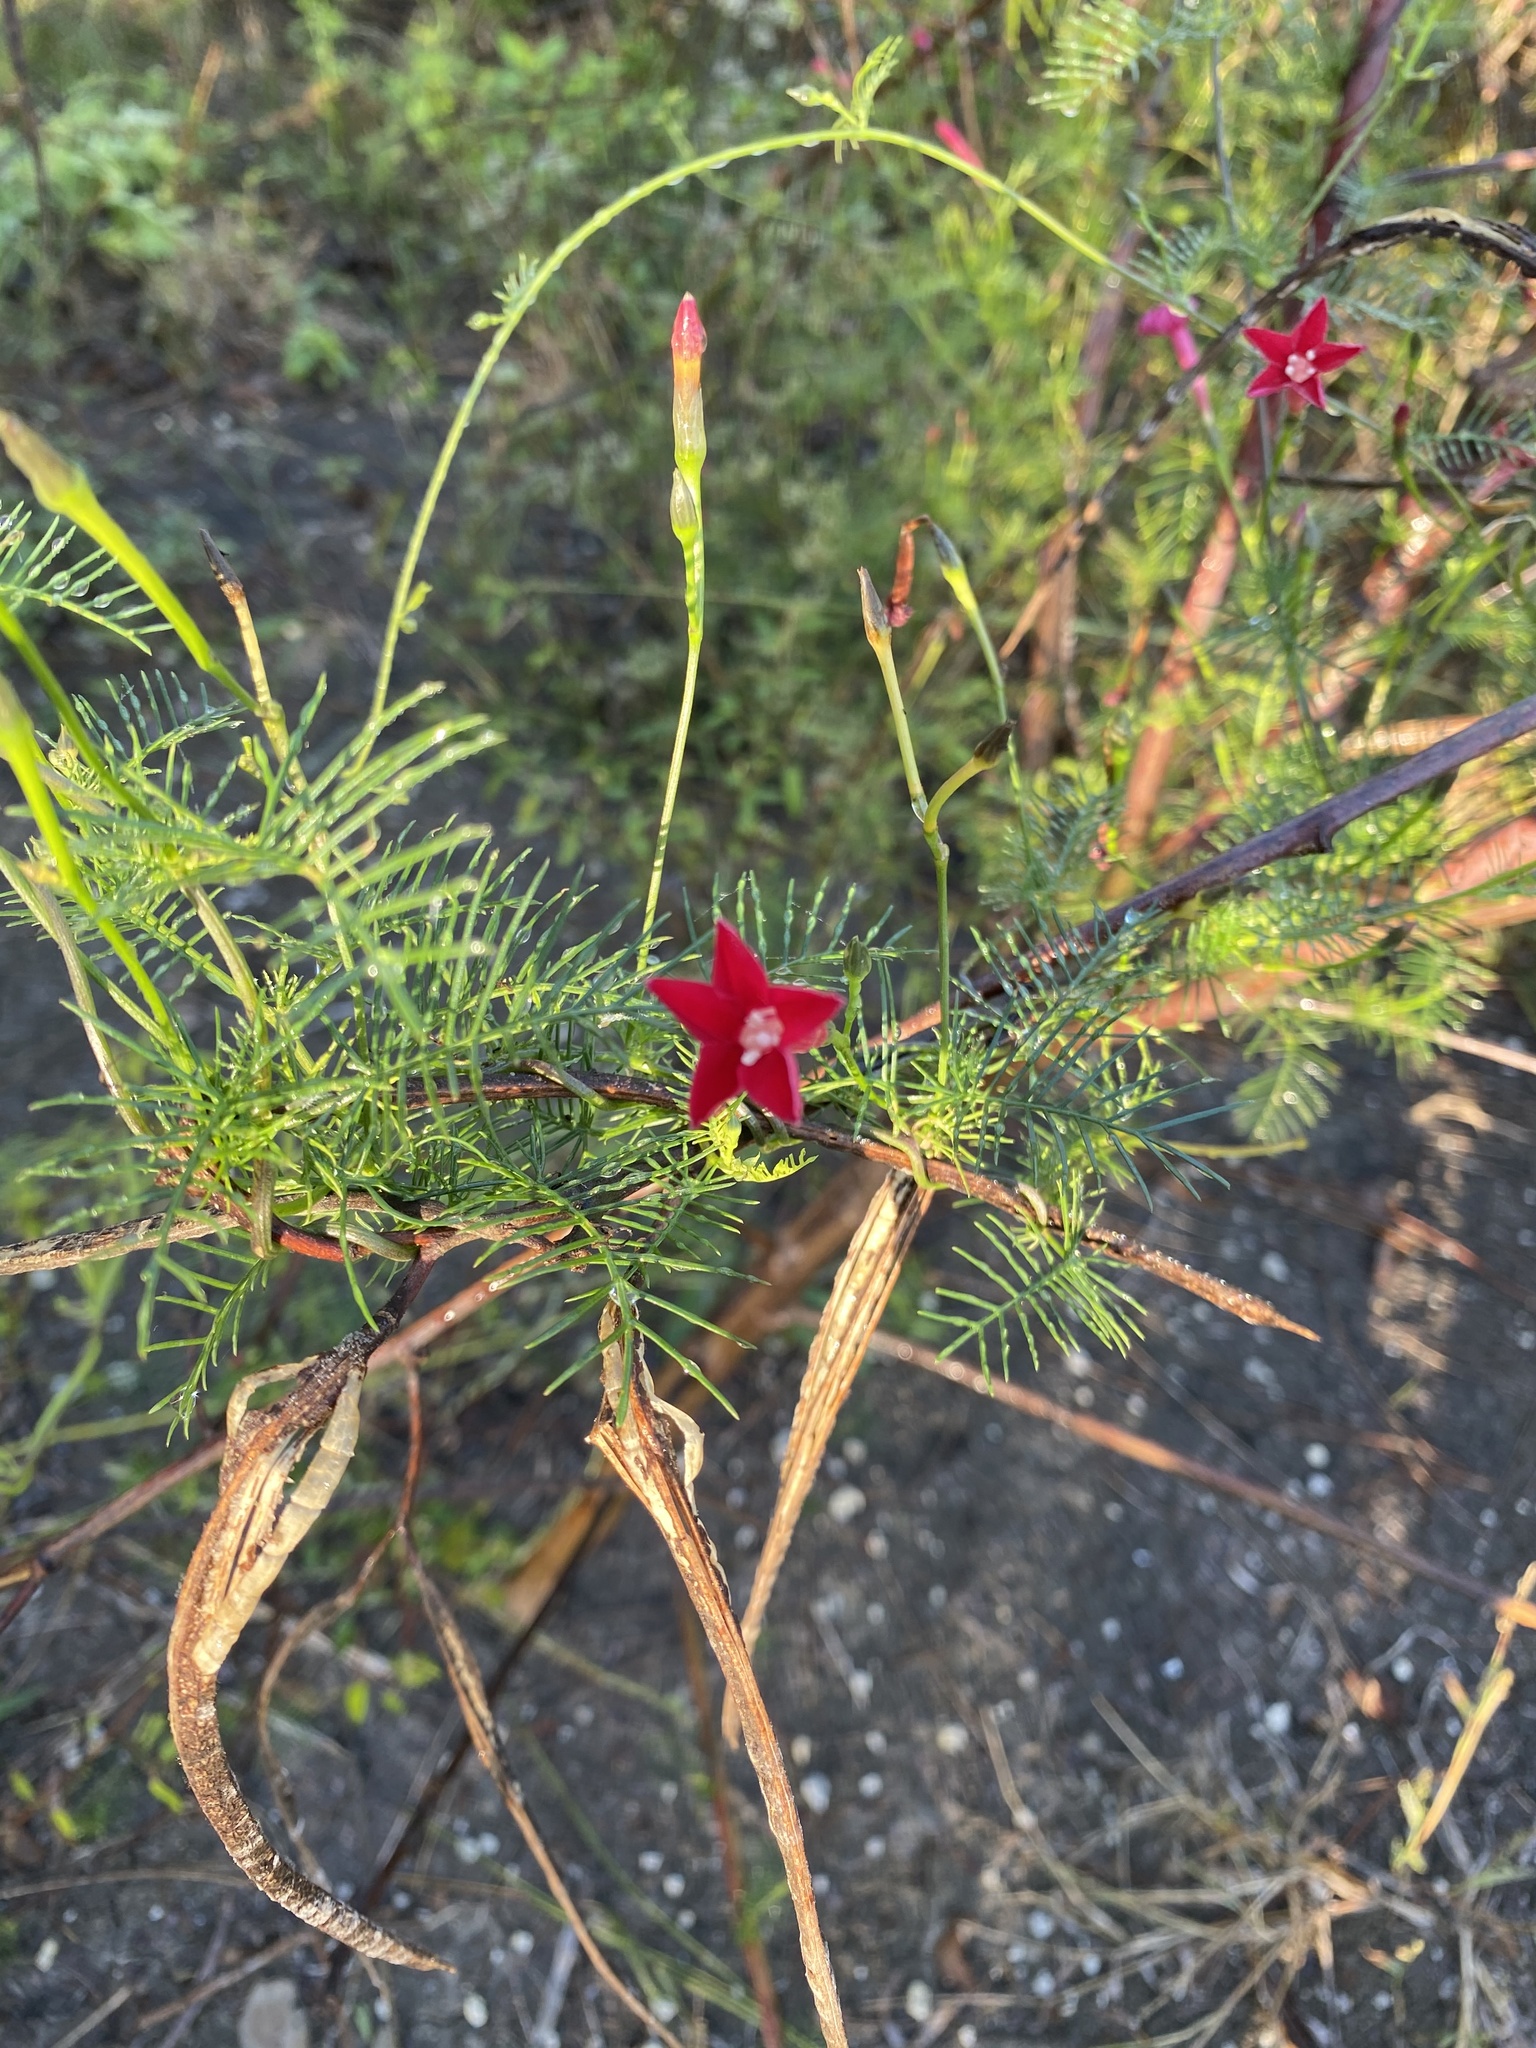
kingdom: Plantae
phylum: Tracheophyta
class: Magnoliopsida
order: Solanales
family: Convolvulaceae
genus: Ipomoea
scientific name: Ipomoea quamoclit
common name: Cypress vine
